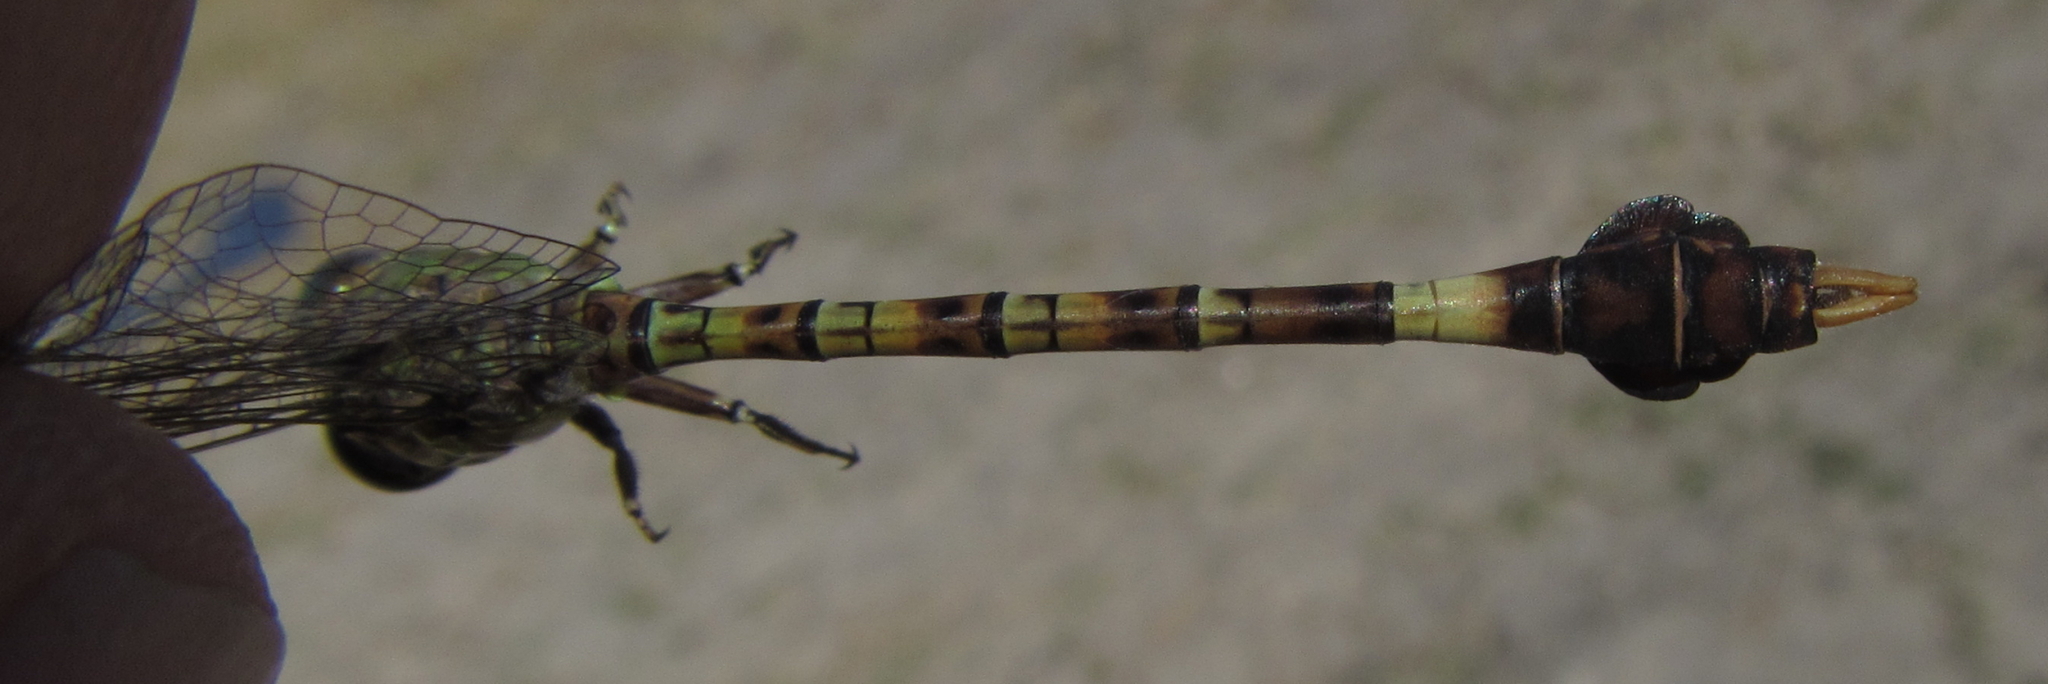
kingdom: Animalia
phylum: Arthropoda
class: Insecta
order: Odonata
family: Gomphidae
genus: Paragomphus
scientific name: Paragomphus genei
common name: Common hooktail
